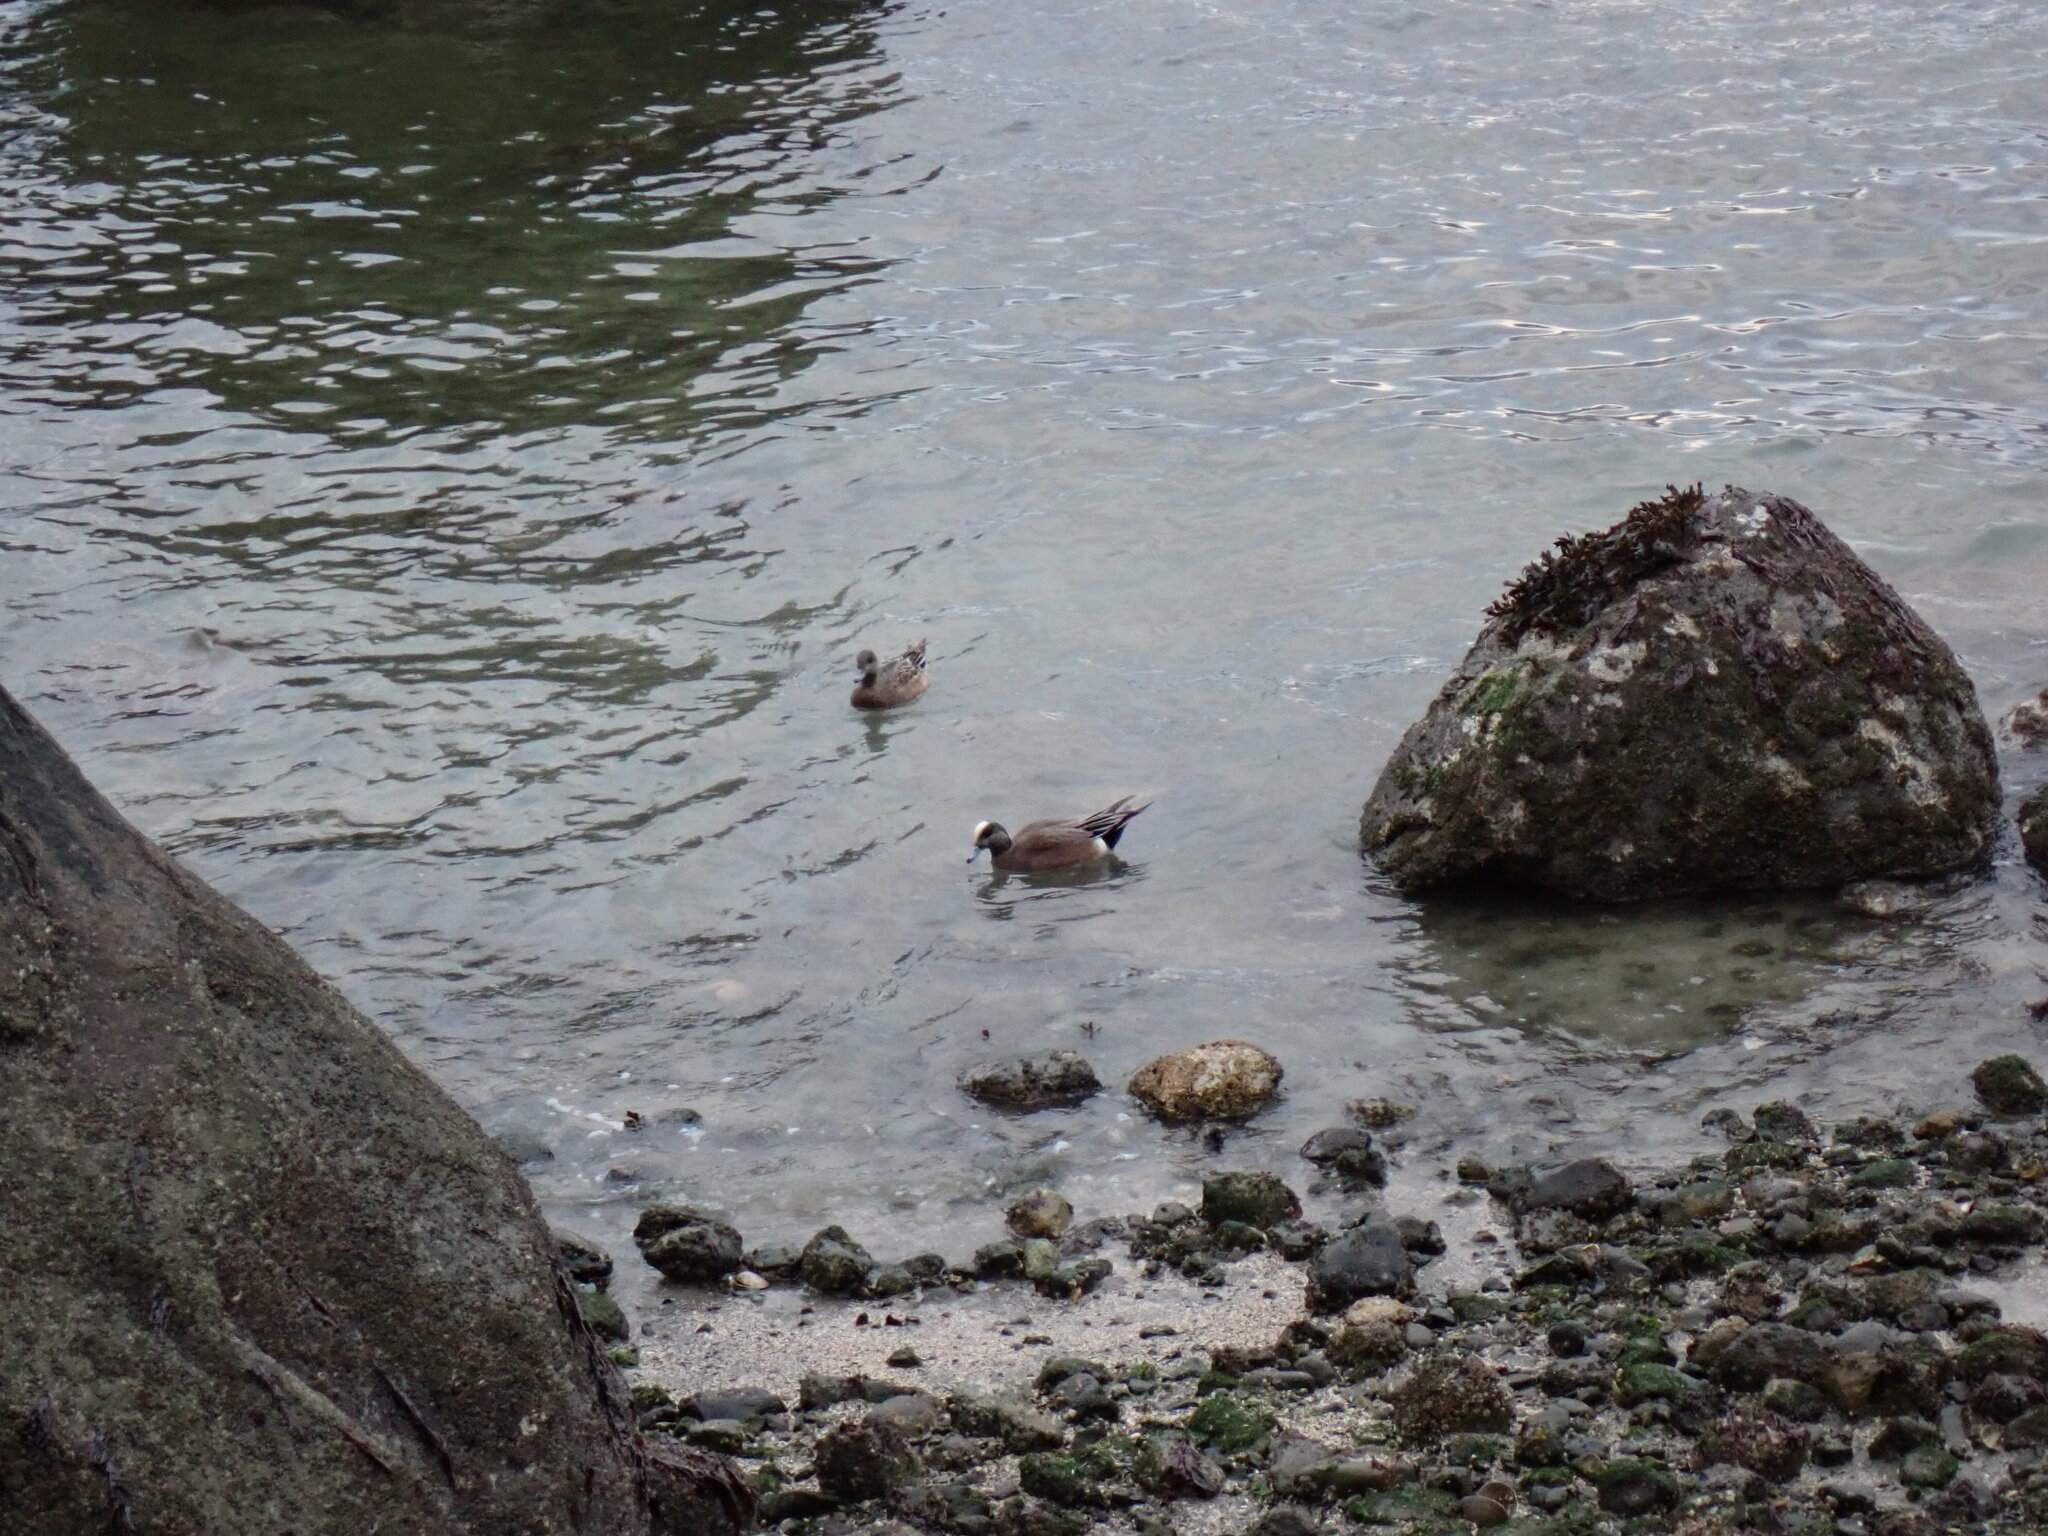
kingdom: Animalia
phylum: Chordata
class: Aves
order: Anseriformes
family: Anatidae
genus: Mareca
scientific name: Mareca americana
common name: American wigeon
